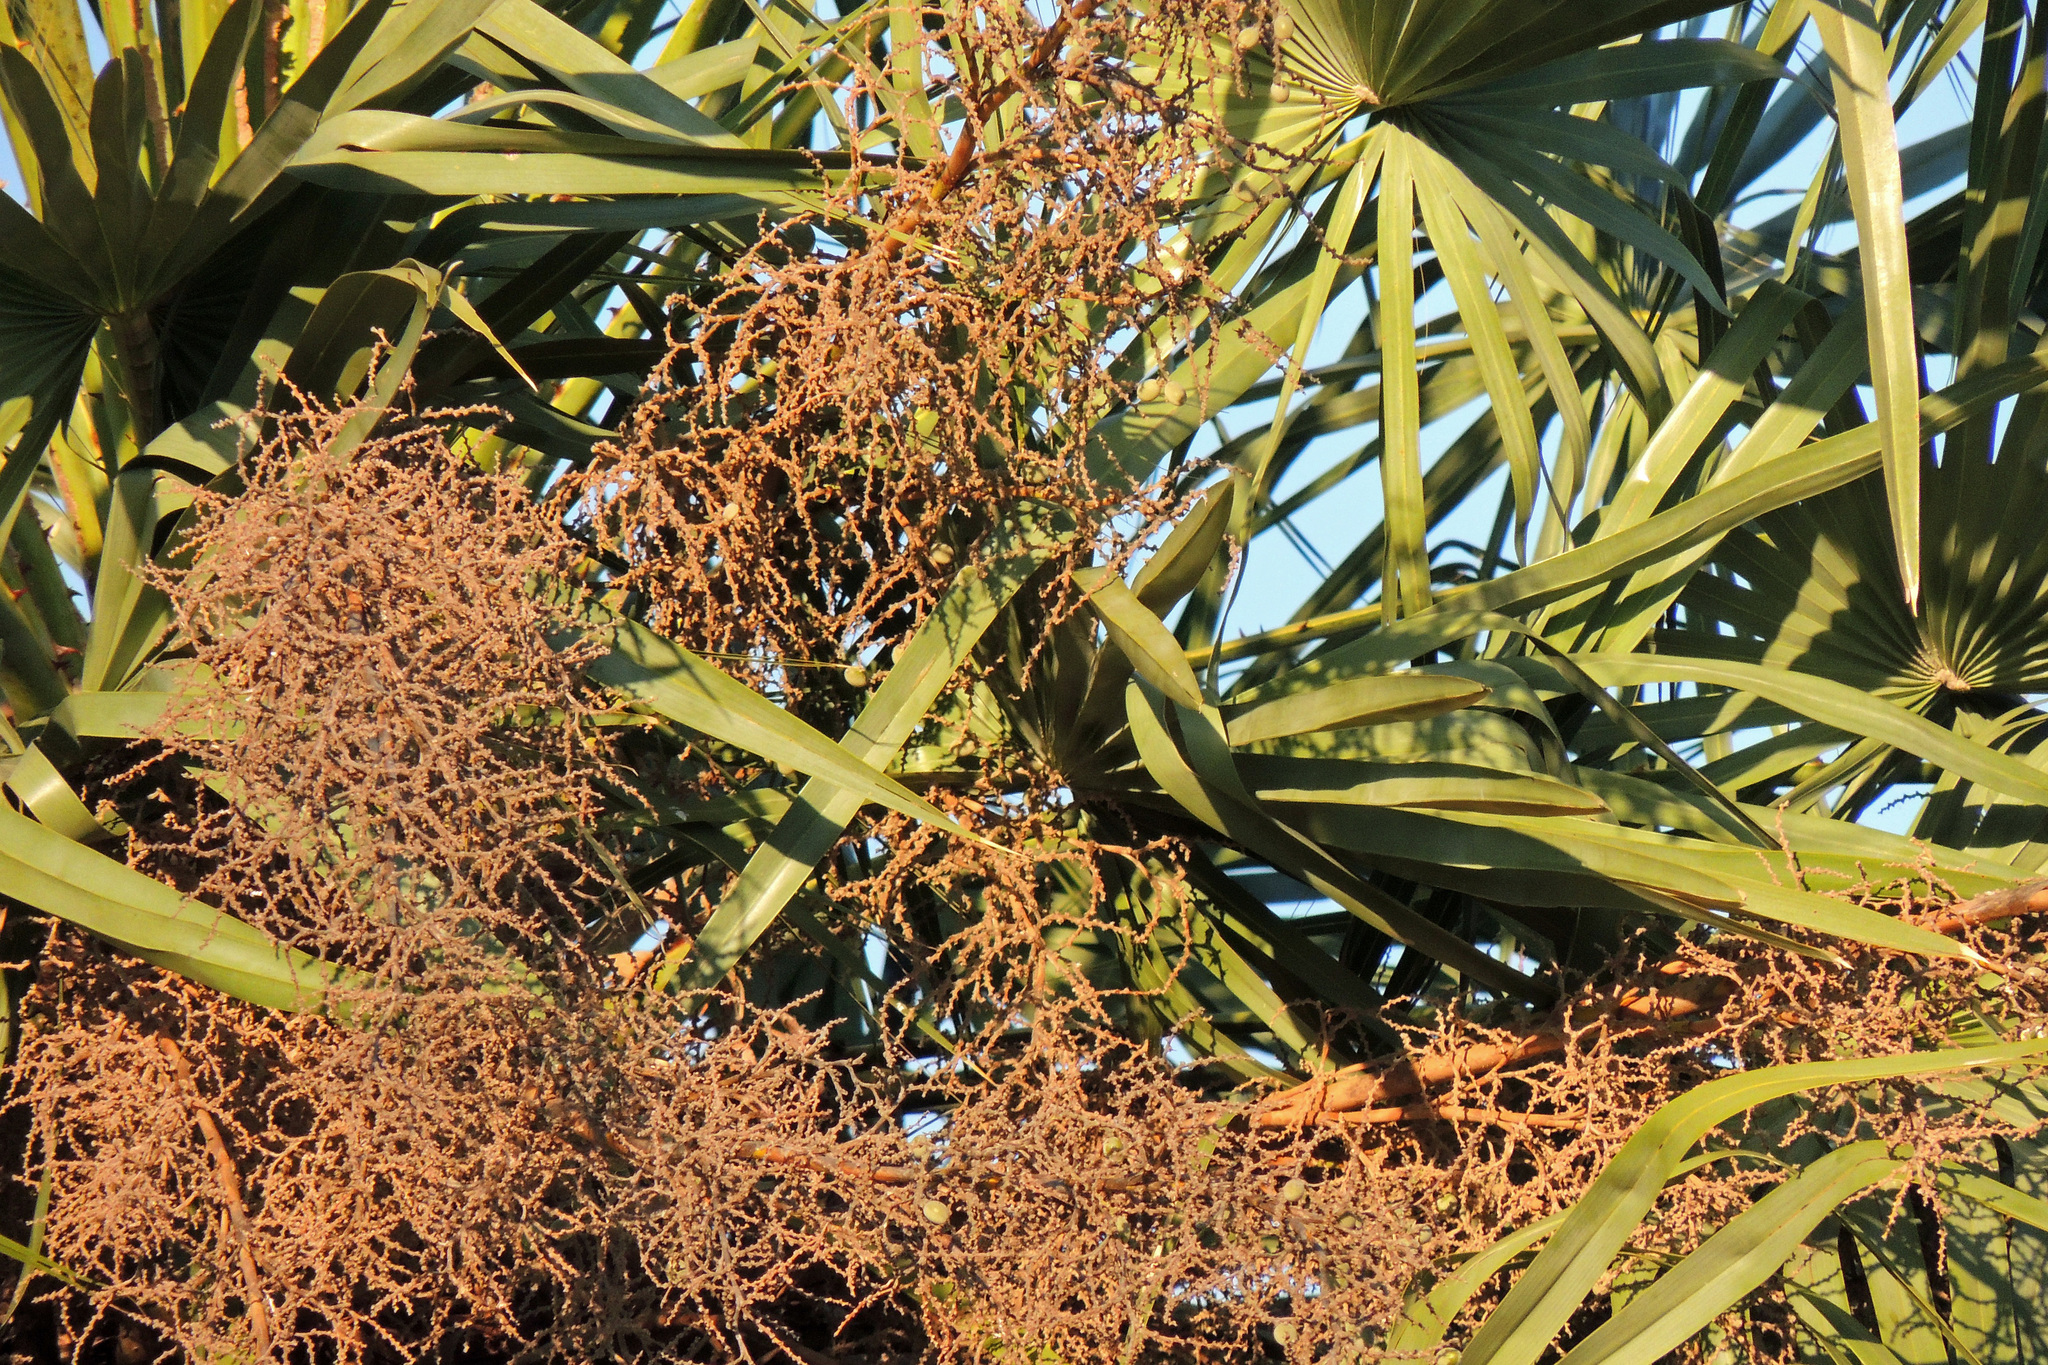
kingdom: Plantae
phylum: Tracheophyta
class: Liliopsida
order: Arecales
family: Arecaceae
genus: Copernicia
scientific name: Copernicia alba
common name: Caranday palm
